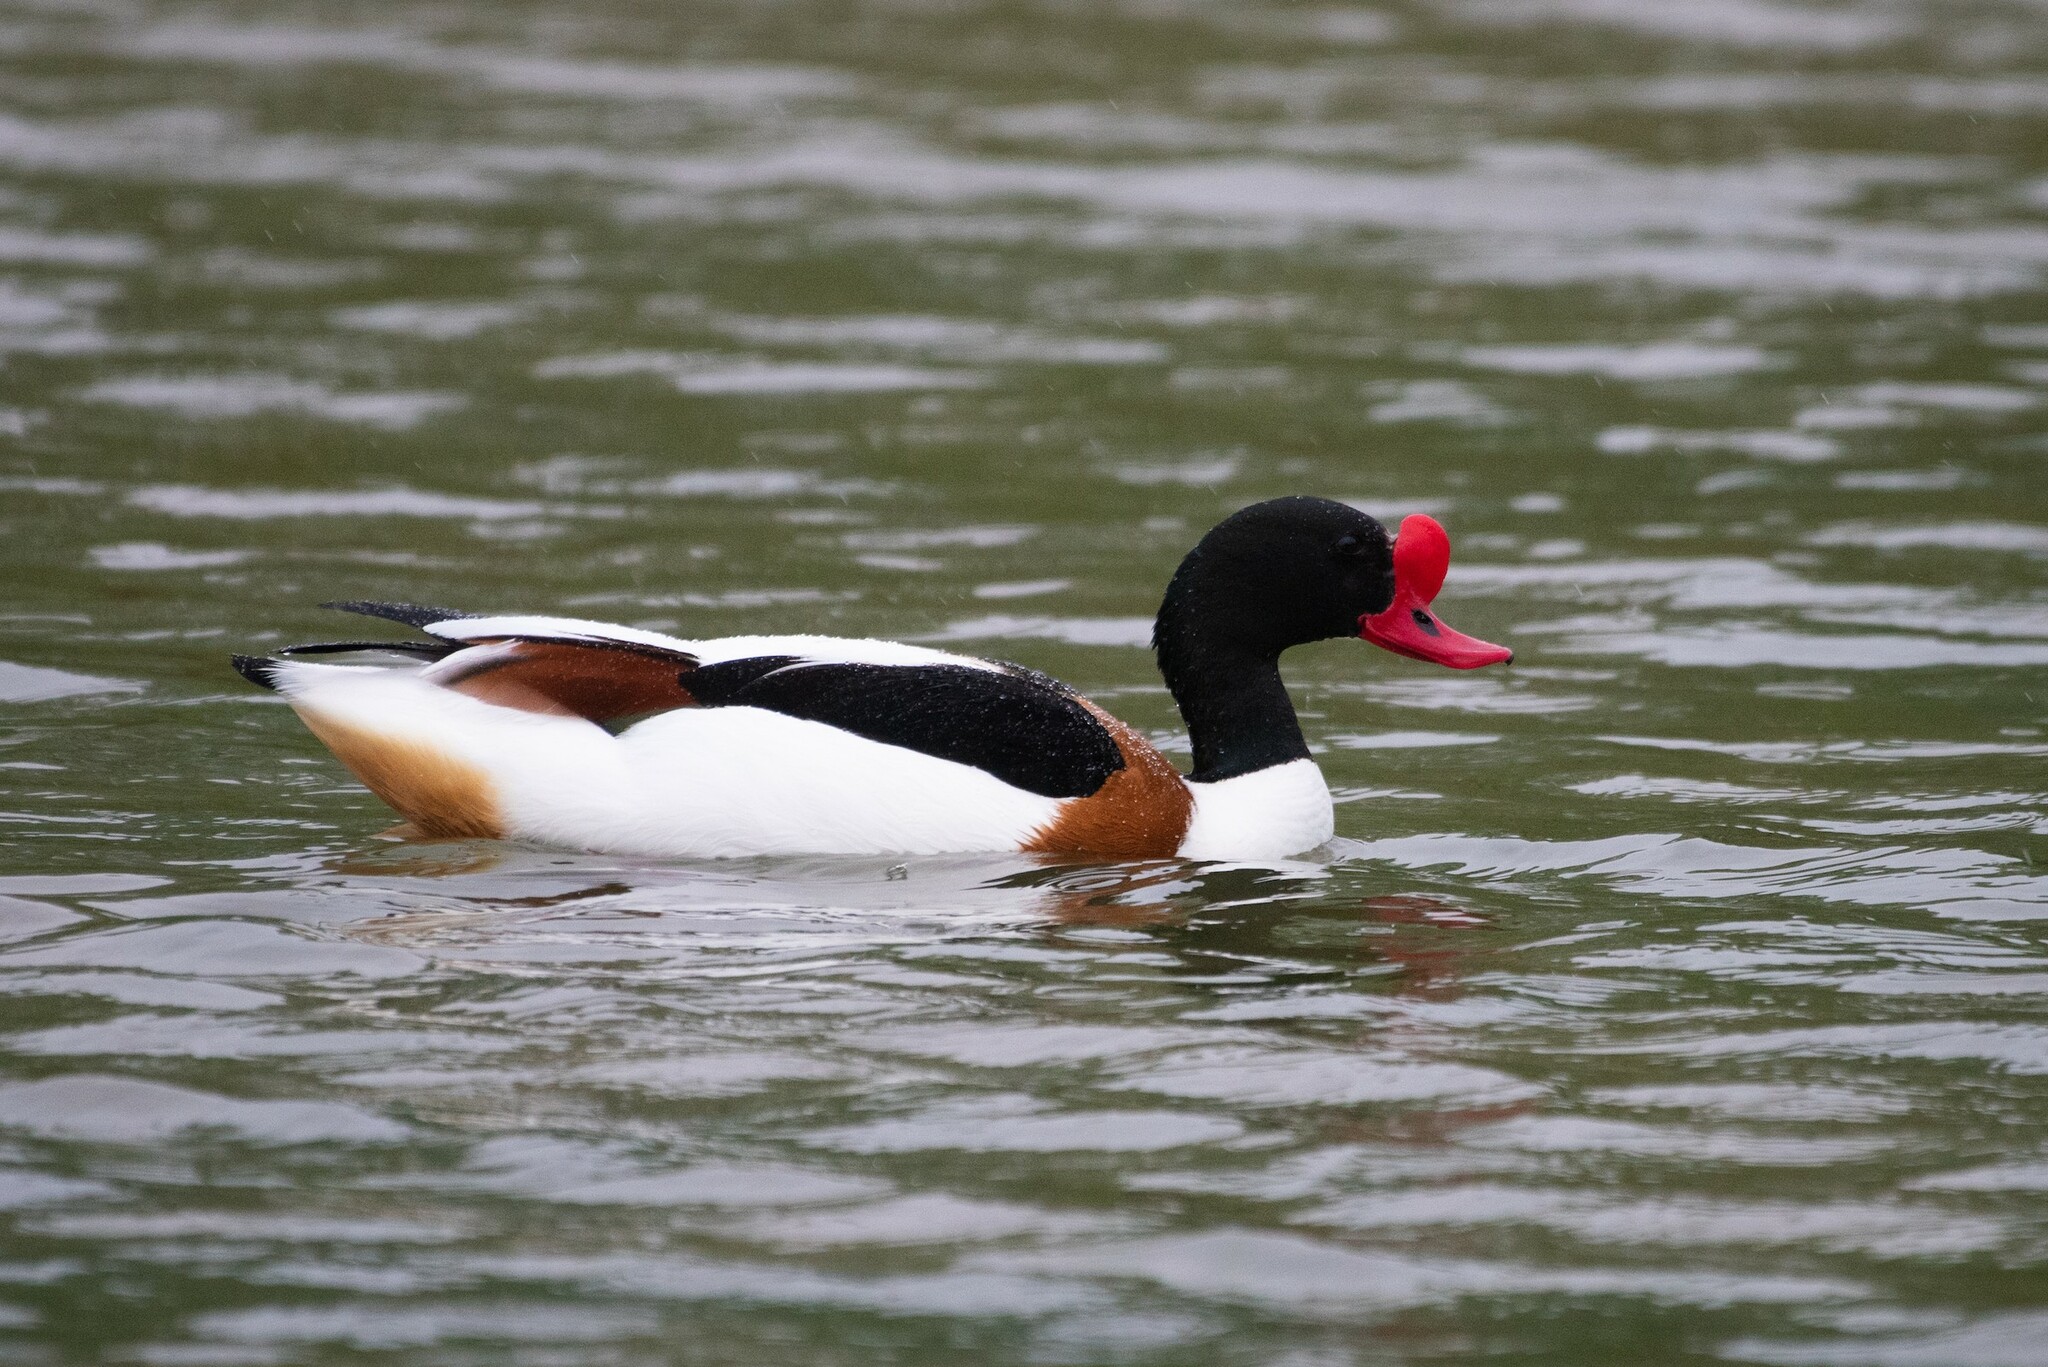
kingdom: Animalia
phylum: Chordata
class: Aves
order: Anseriformes
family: Anatidae
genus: Tadorna
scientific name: Tadorna tadorna
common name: Common shelduck
